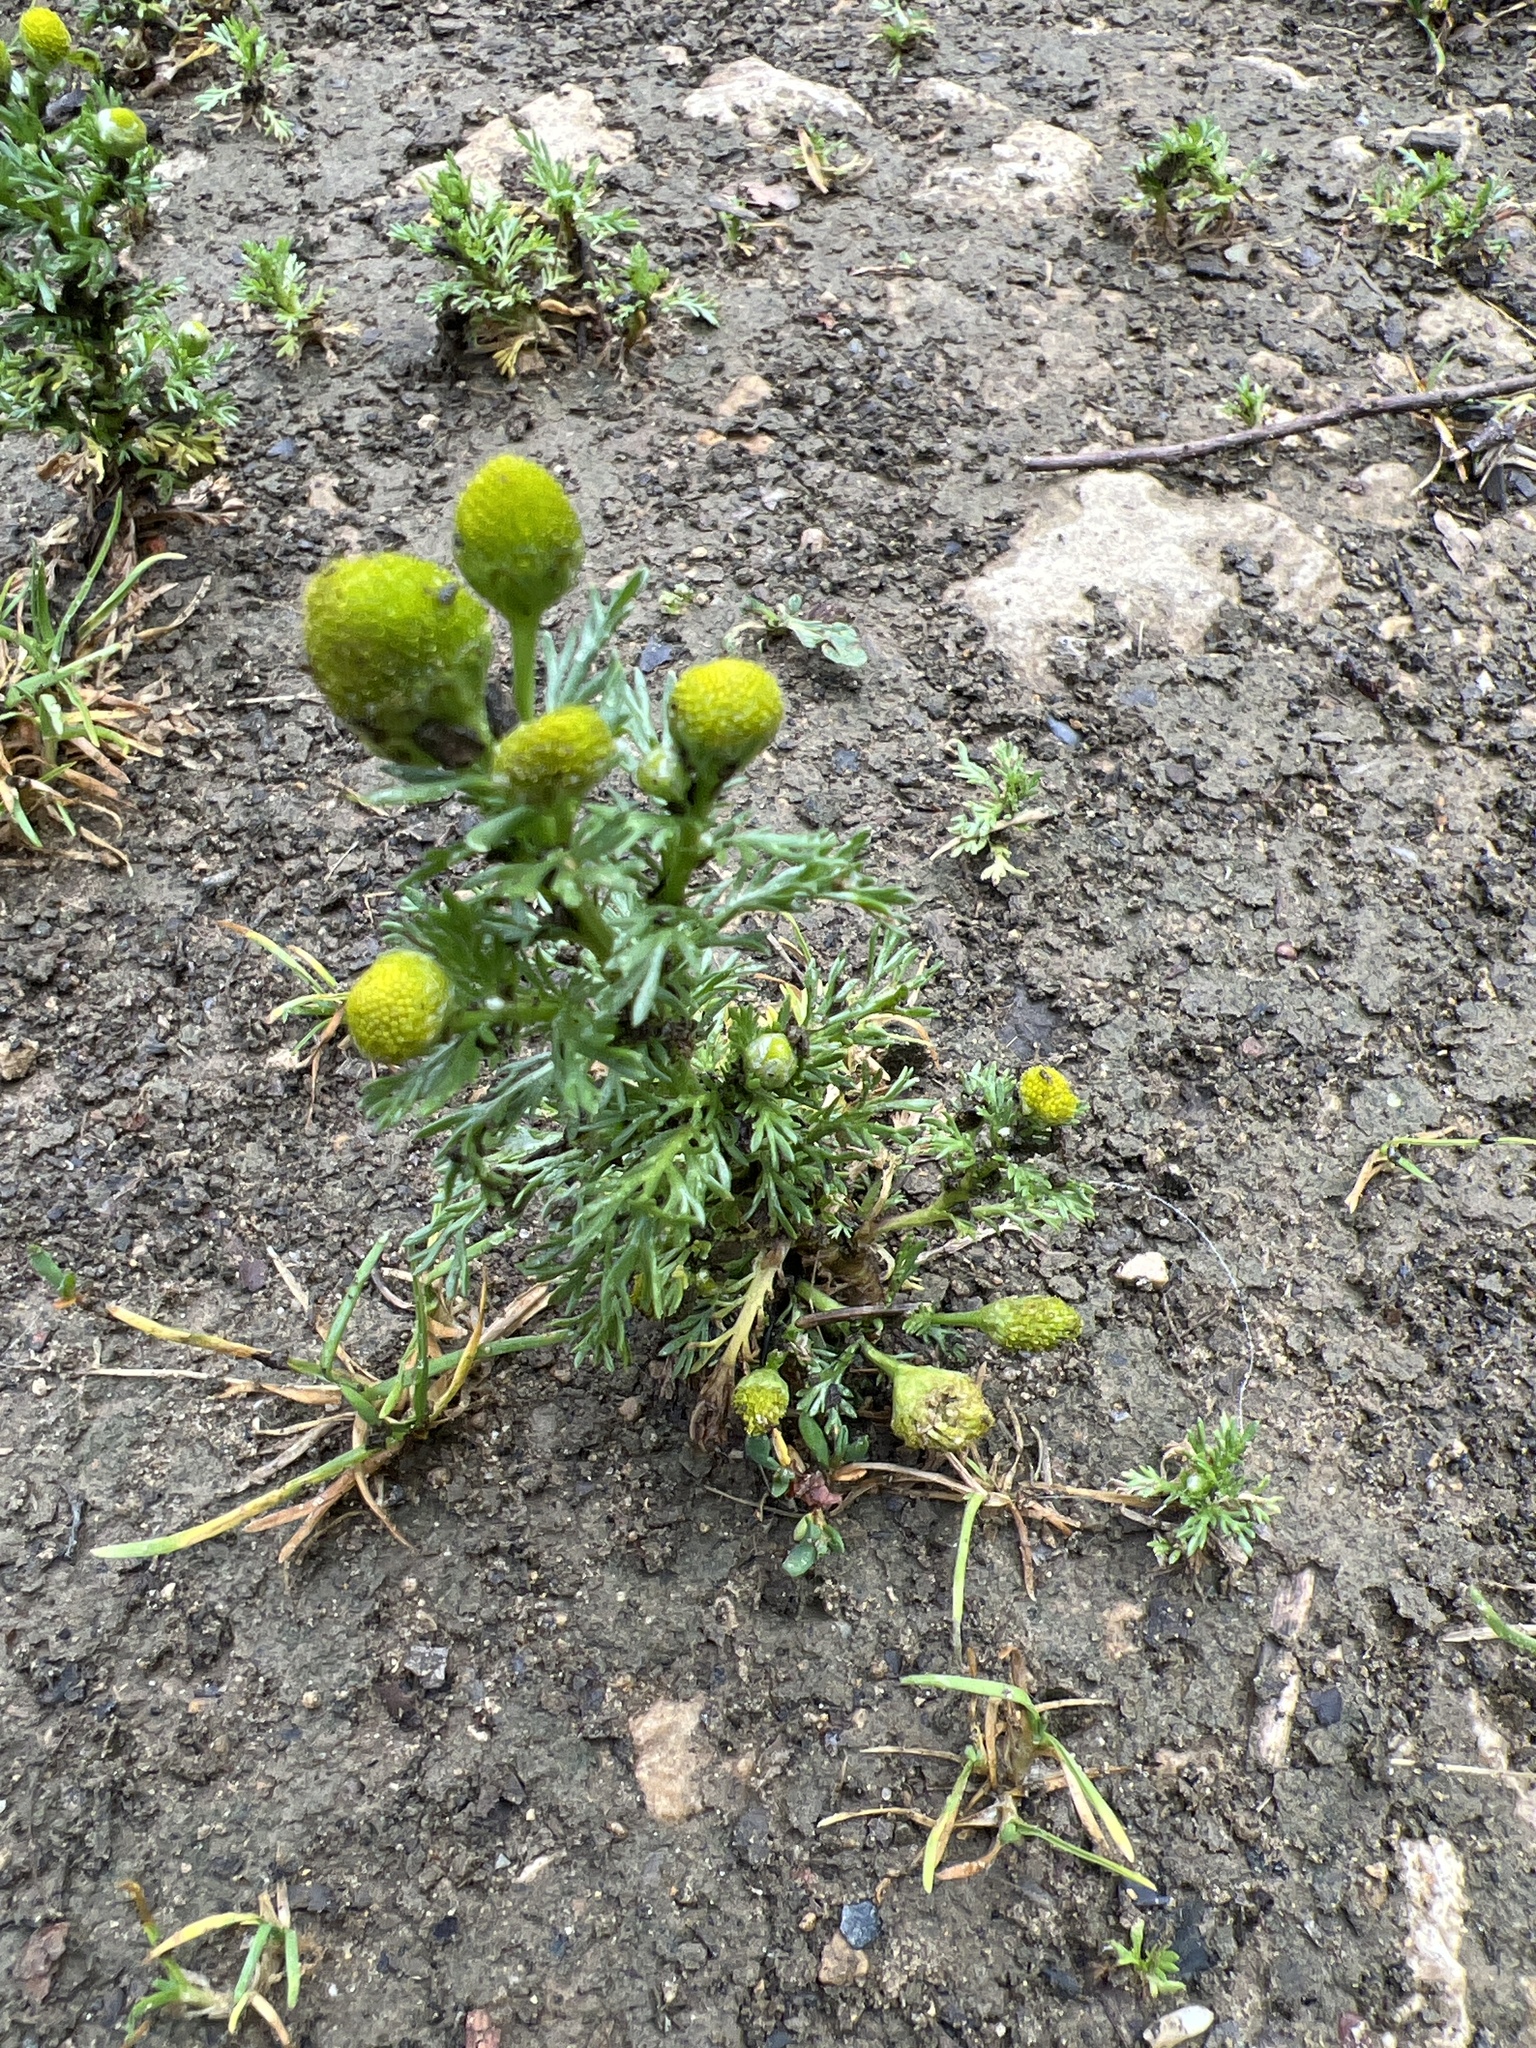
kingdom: Plantae
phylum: Tracheophyta
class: Magnoliopsida
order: Asterales
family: Asteraceae
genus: Matricaria
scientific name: Matricaria discoidea
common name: Disc mayweed
